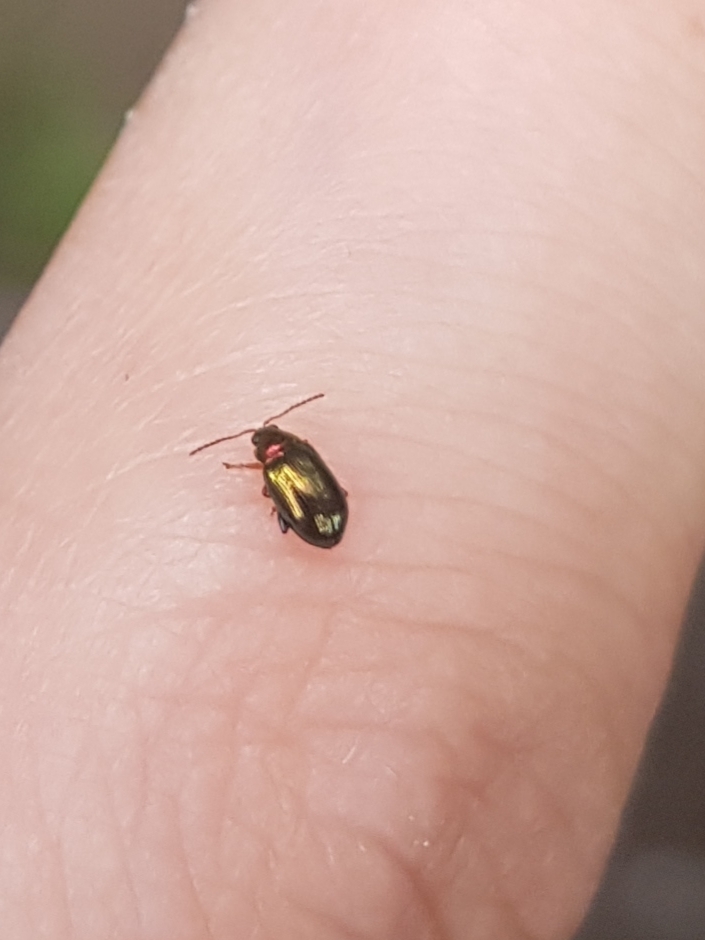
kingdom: Animalia
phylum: Arthropoda
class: Insecta
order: Coleoptera
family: Chrysomelidae
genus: Crepidodera
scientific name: Crepidodera aurata
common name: Willow flea beetle
